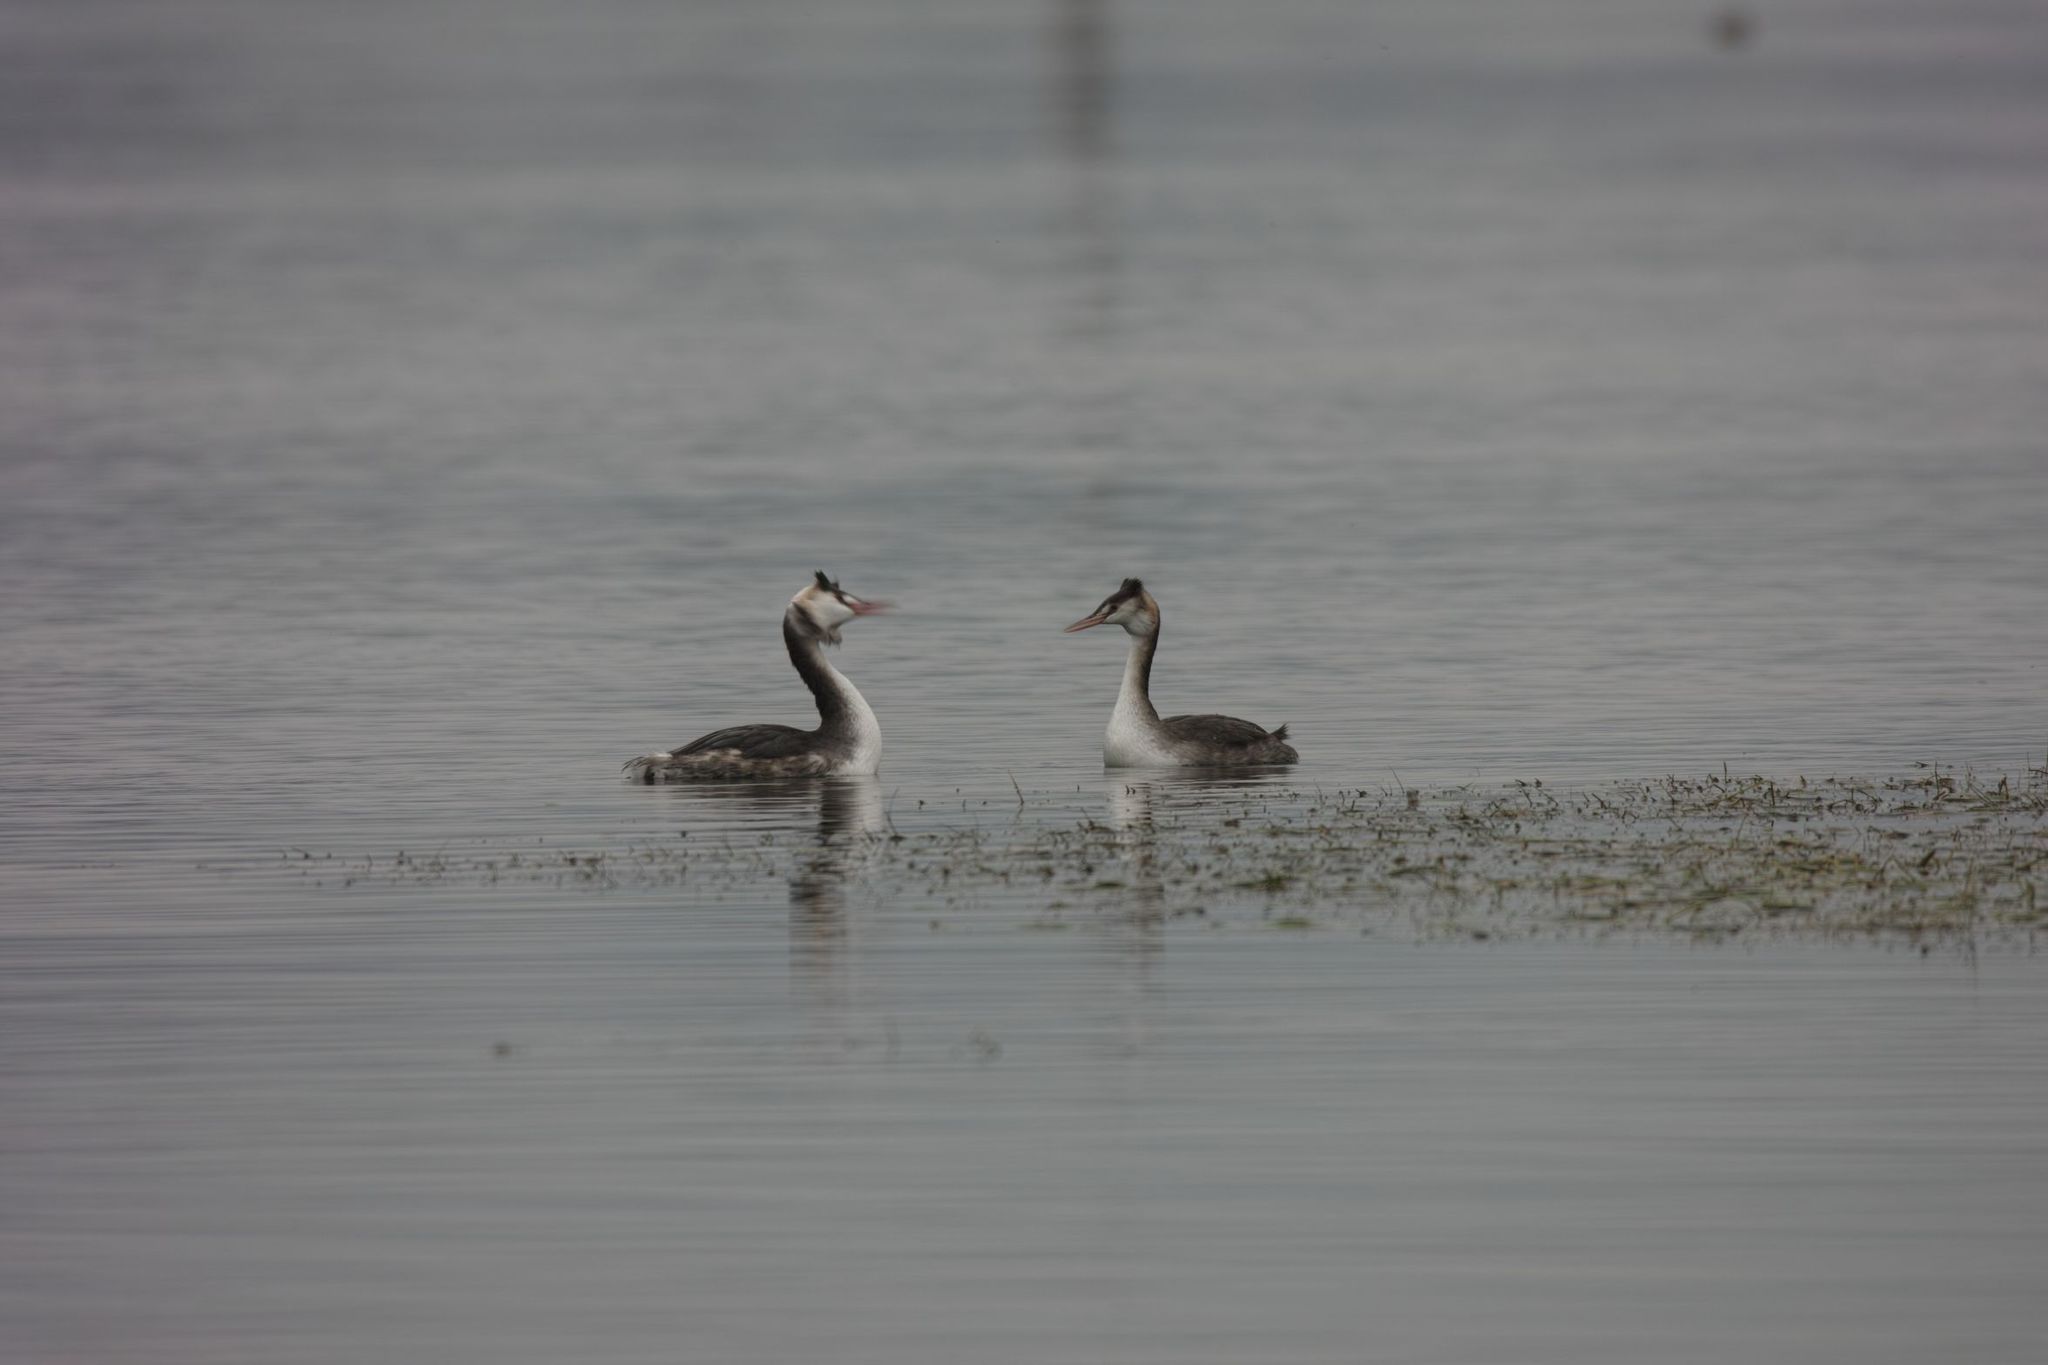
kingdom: Animalia
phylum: Chordata
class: Aves
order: Podicipediformes
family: Podicipedidae
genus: Podiceps
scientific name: Podiceps cristatus
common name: Great crested grebe
